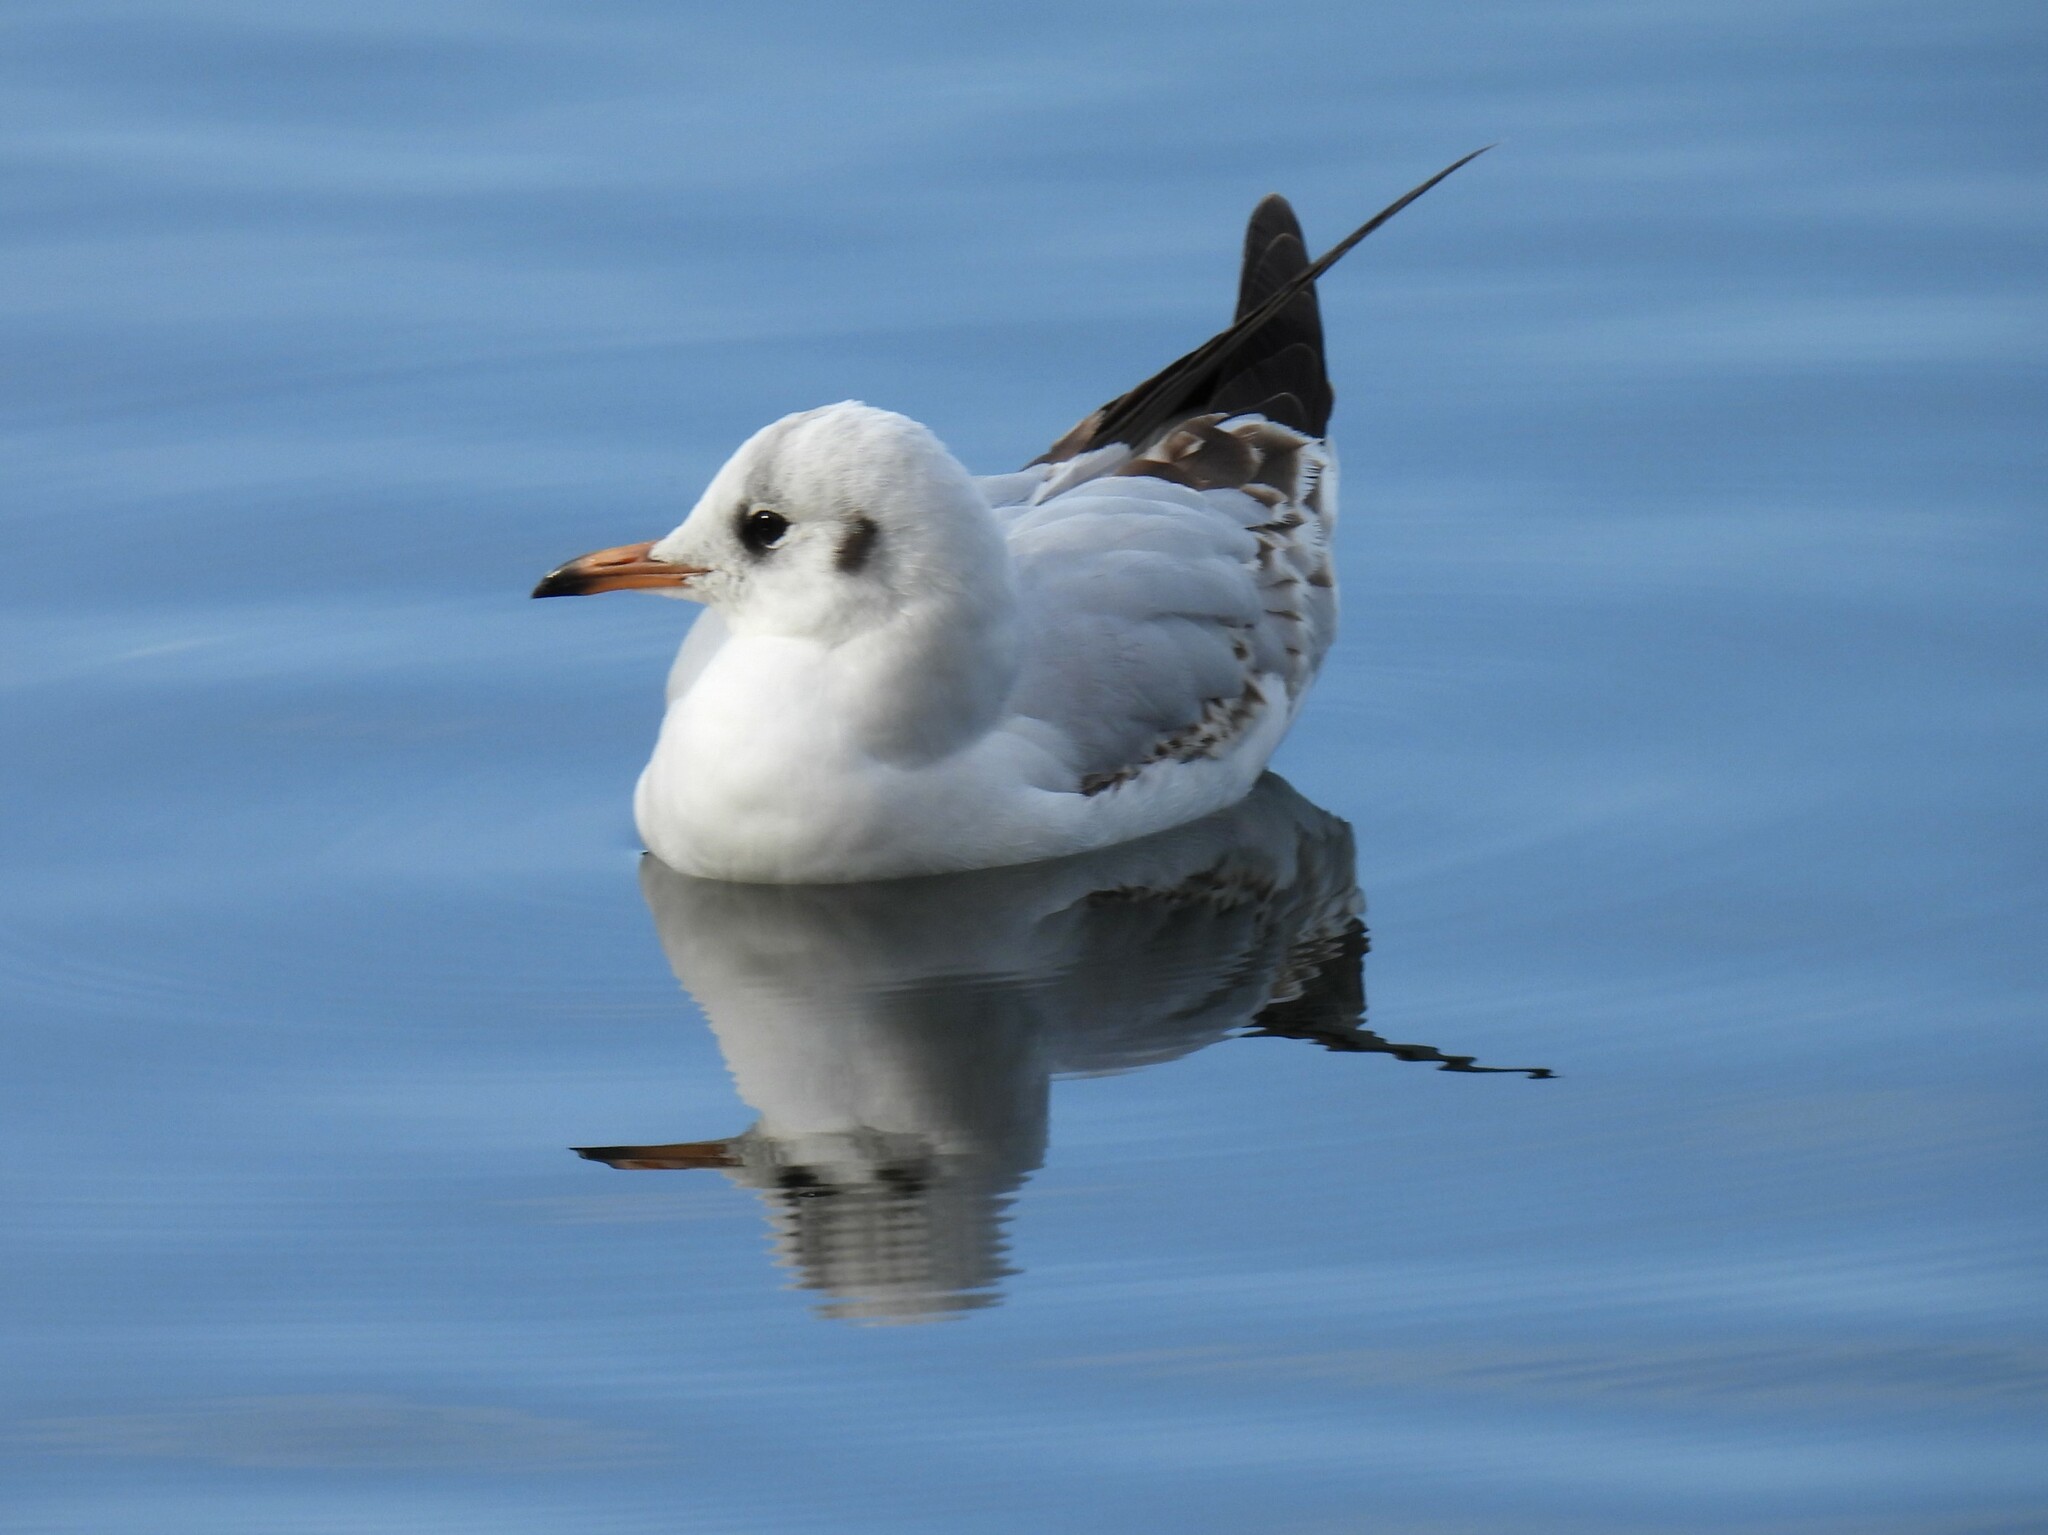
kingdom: Animalia
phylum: Chordata
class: Aves
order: Charadriiformes
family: Laridae
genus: Chroicocephalus
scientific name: Chroicocephalus ridibundus
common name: Black-headed gull
